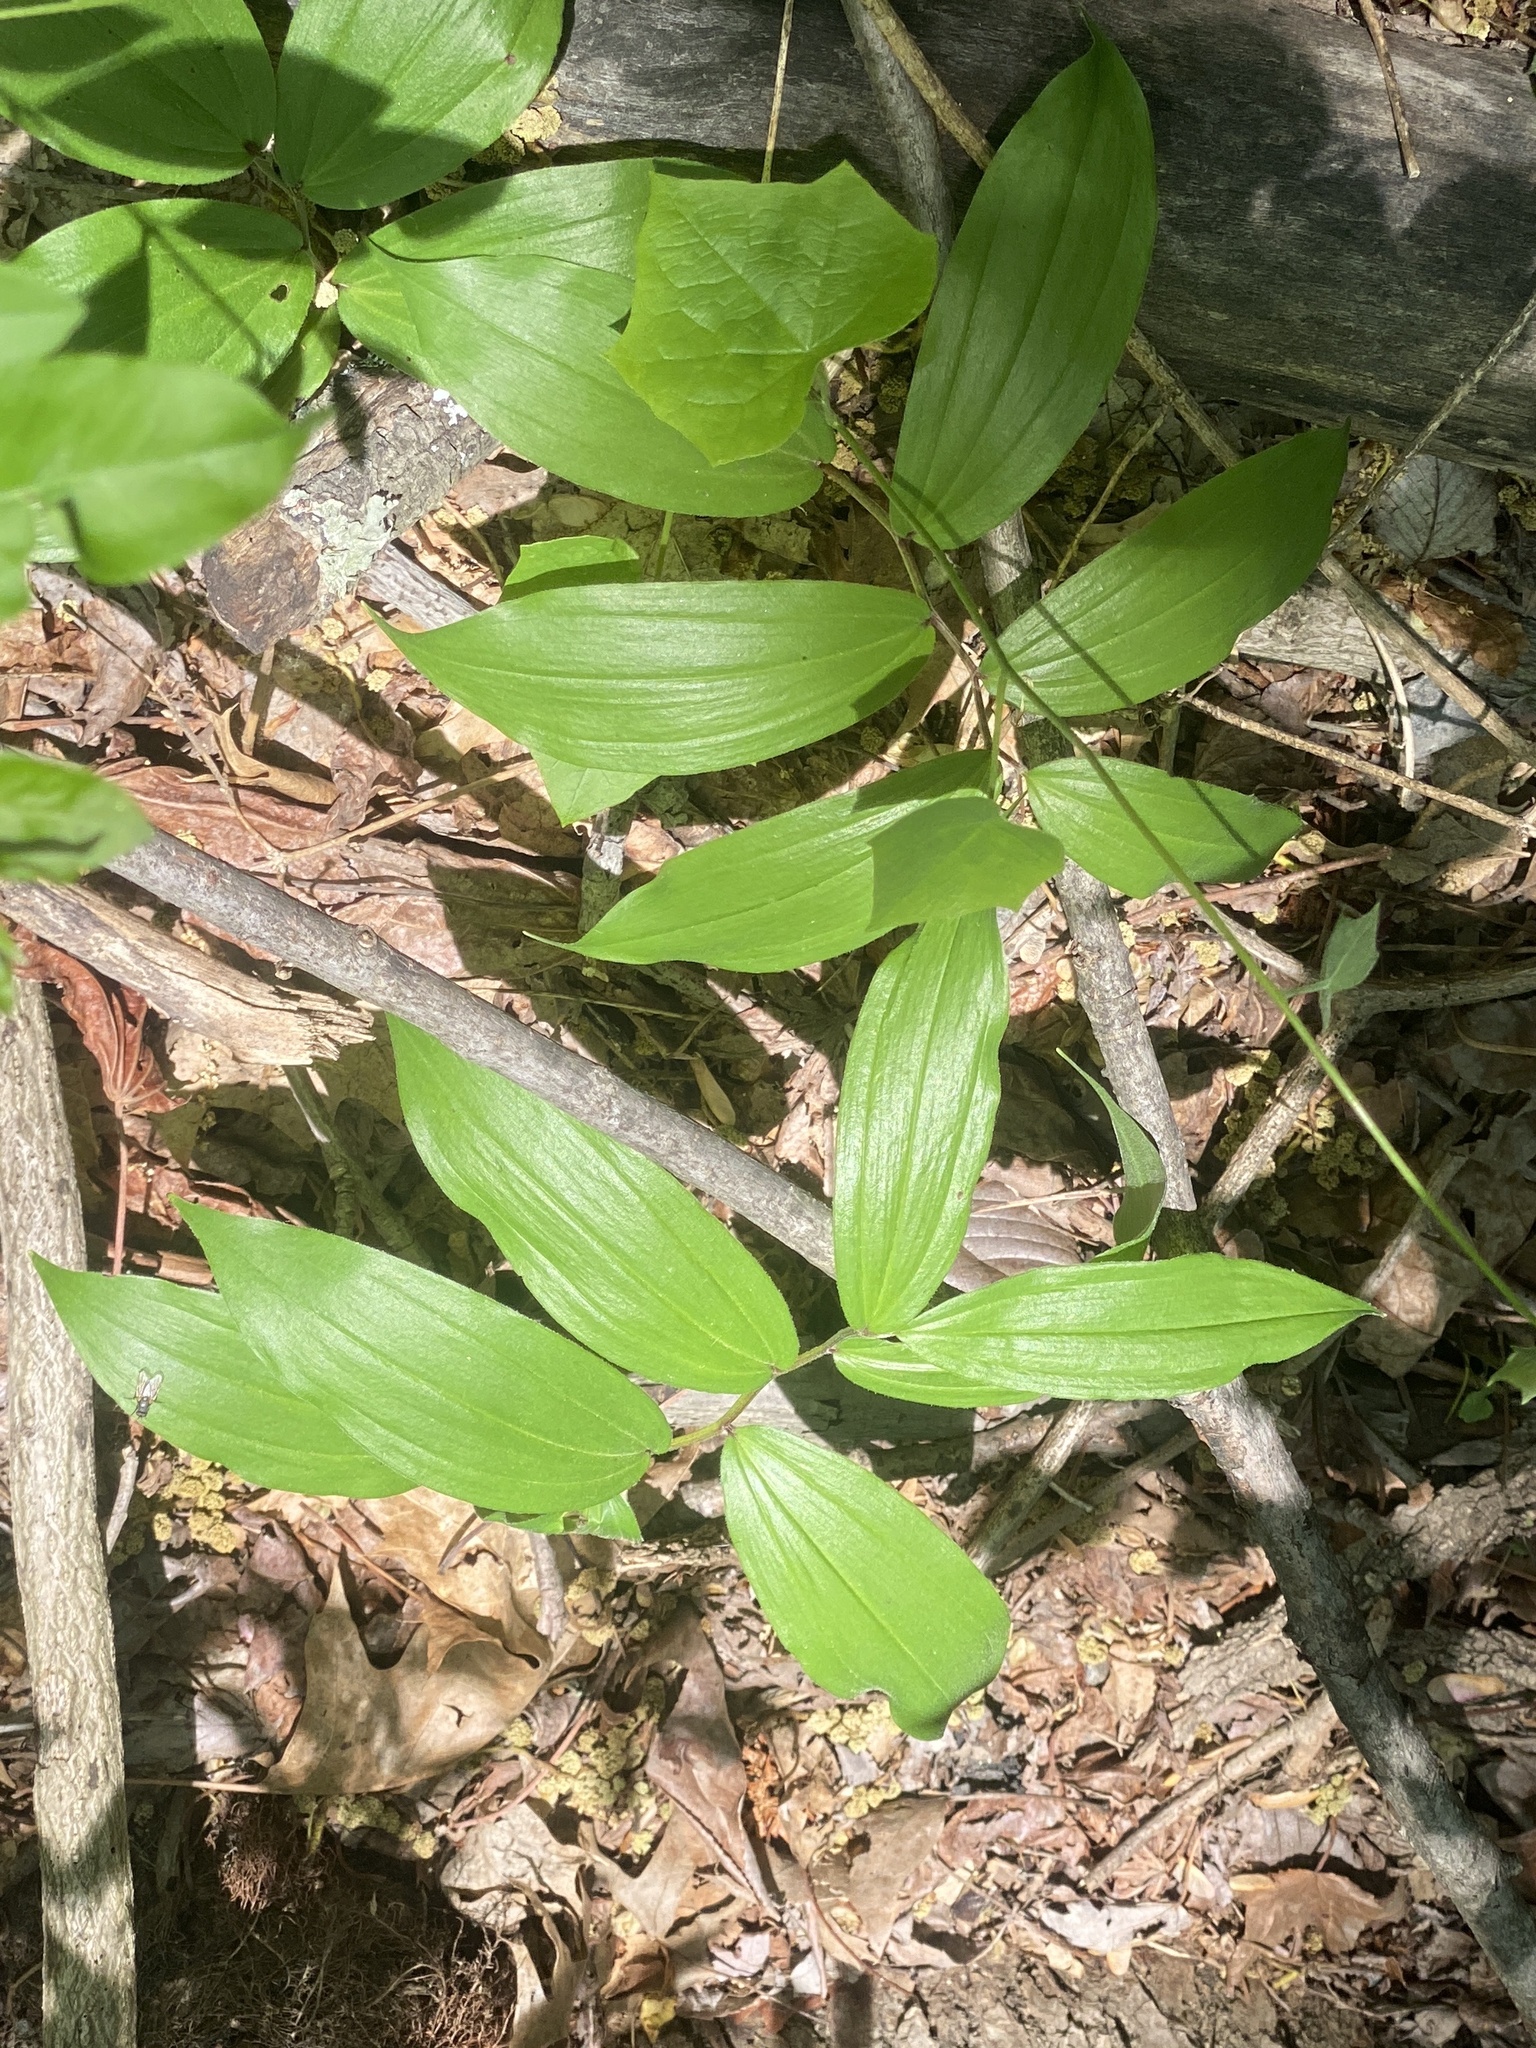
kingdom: Plantae
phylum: Tracheophyta
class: Liliopsida
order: Asparagales
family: Asparagaceae
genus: Maianthemum
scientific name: Maianthemum racemosum
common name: False spikenard
